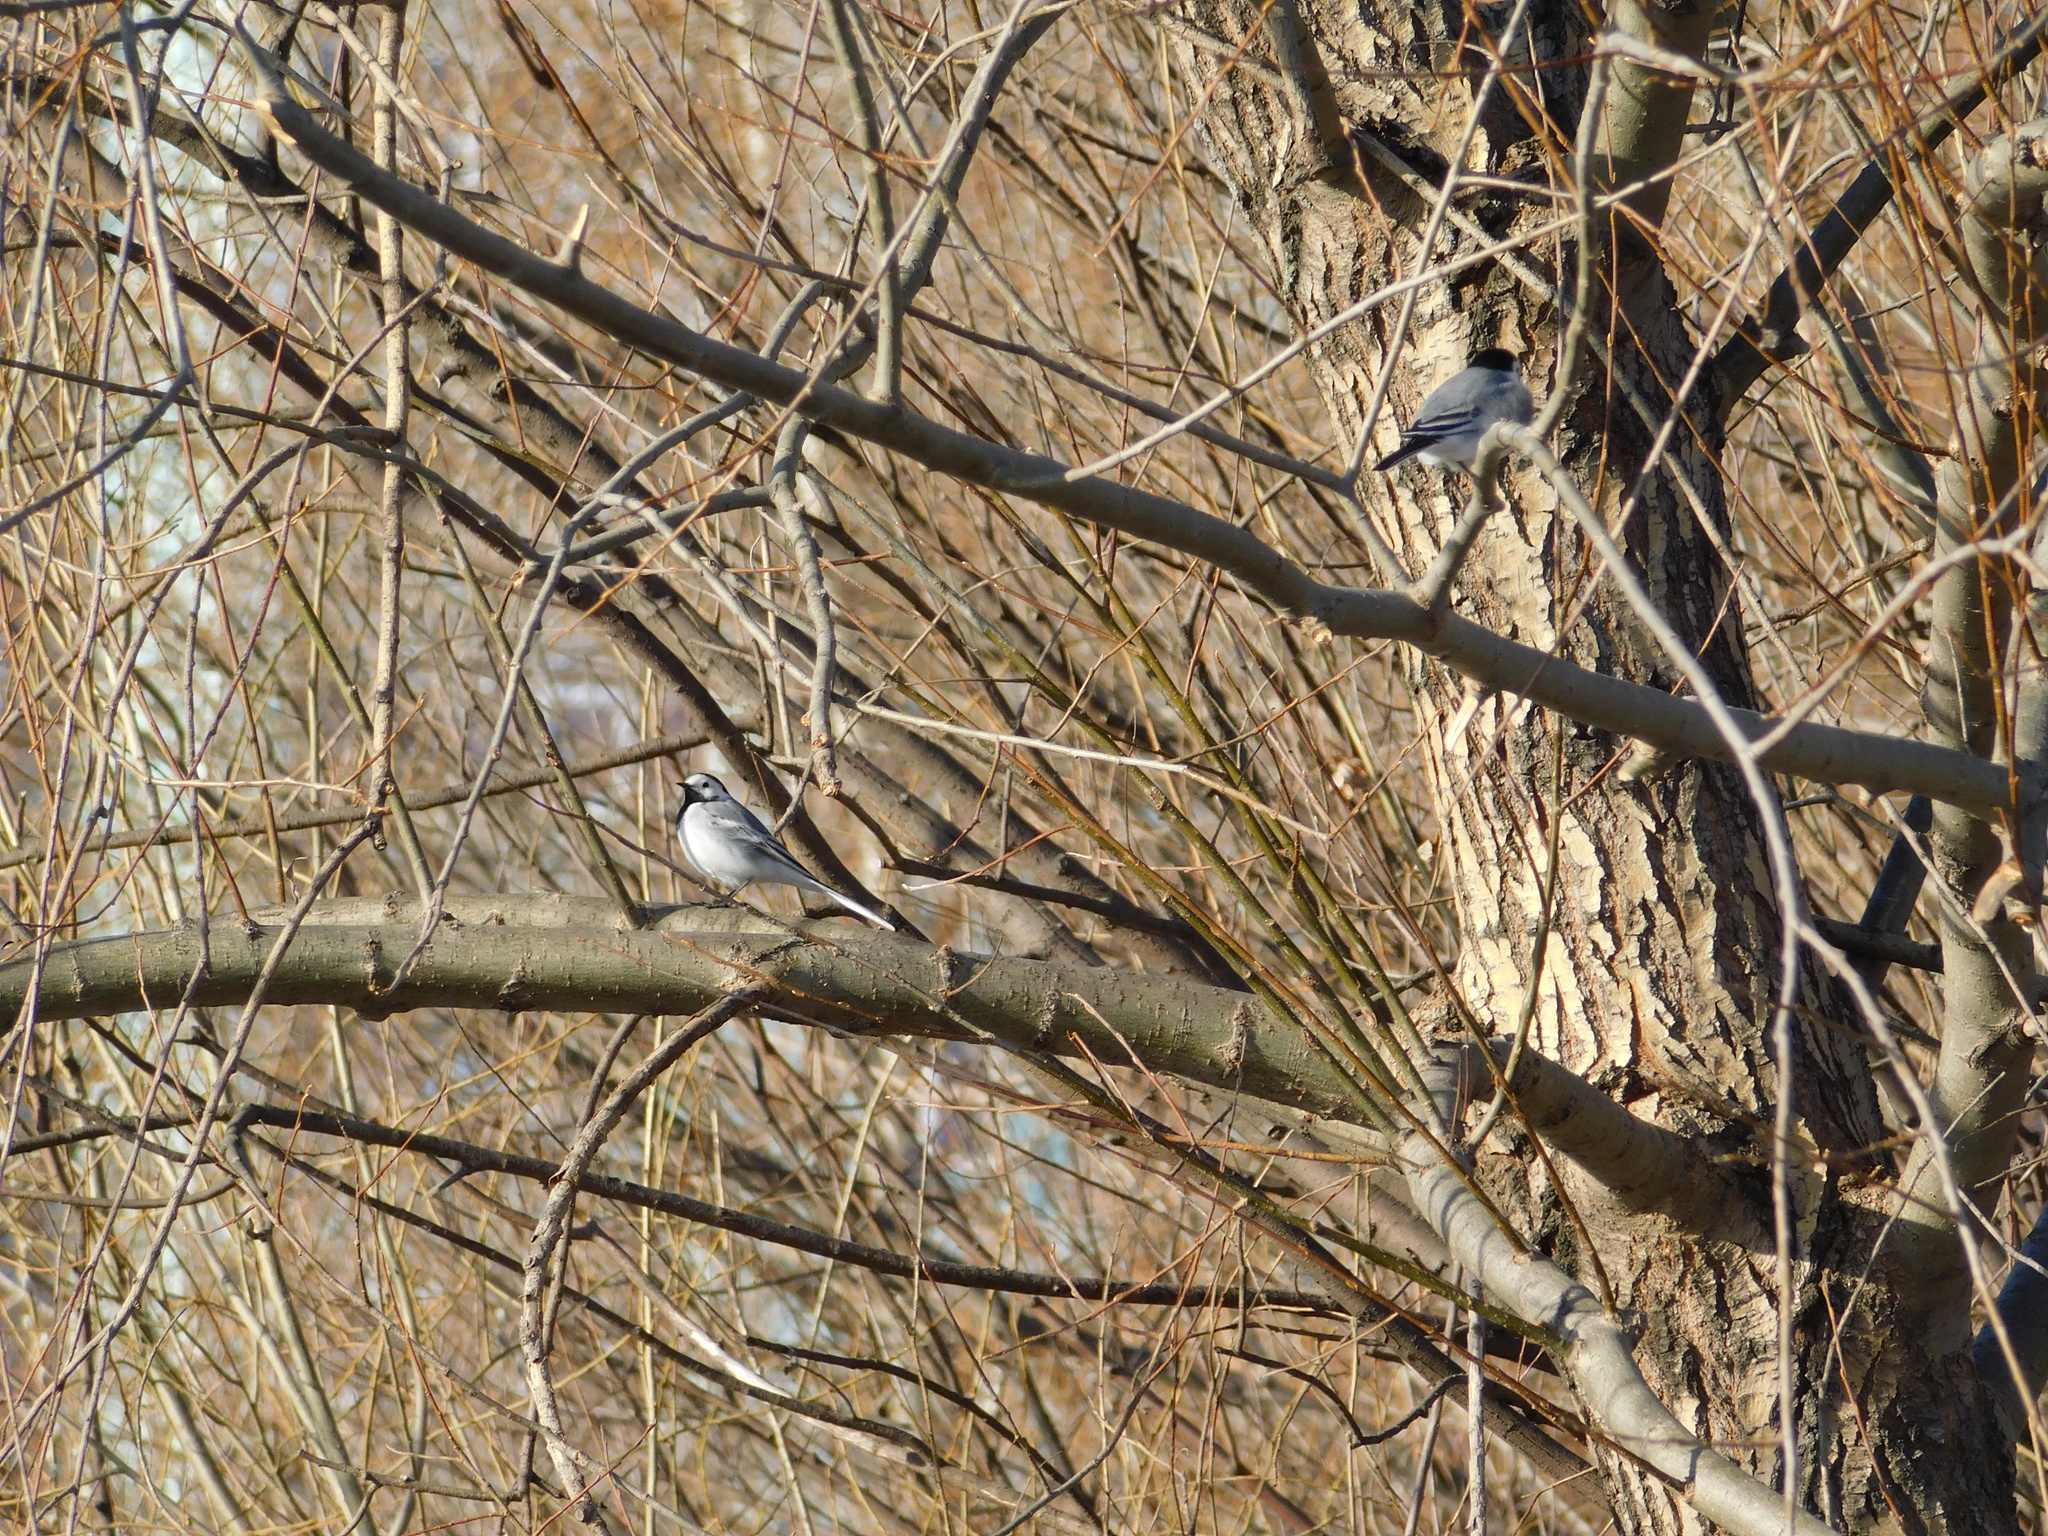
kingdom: Animalia
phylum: Chordata
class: Aves
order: Passeriformes
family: Motacillidae
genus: Motacilla
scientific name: Motacilla alba
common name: White wagtail
